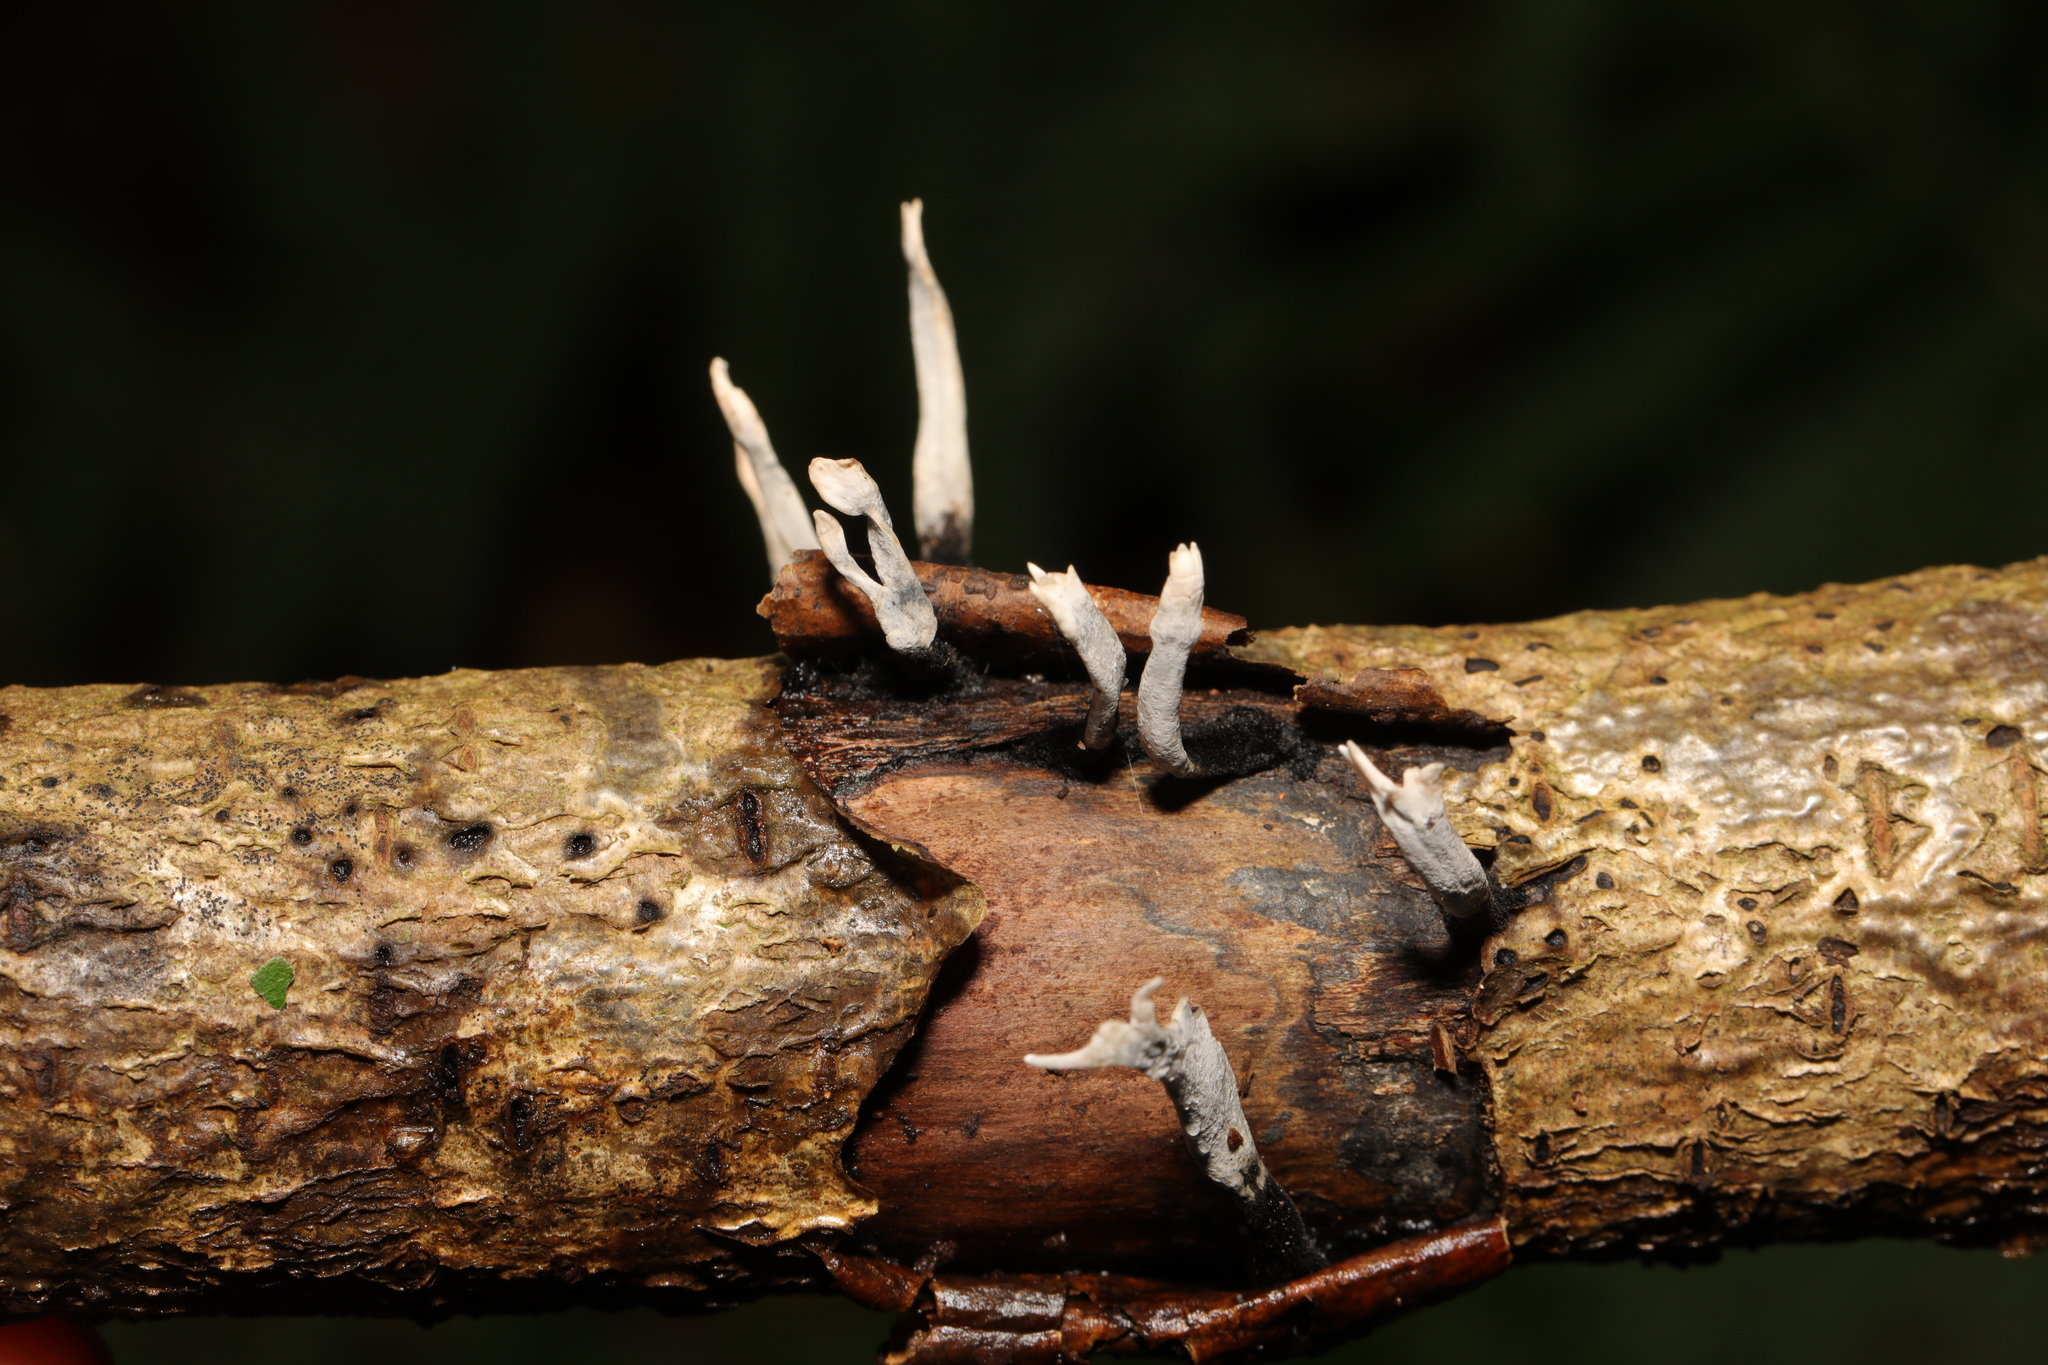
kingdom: Fungi
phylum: Ascomycota
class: Sordariomycetes
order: Xylariales
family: Xylariaceae
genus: Xylaria
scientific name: Xylaria hypoxylon
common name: Candle-snuff fungus
